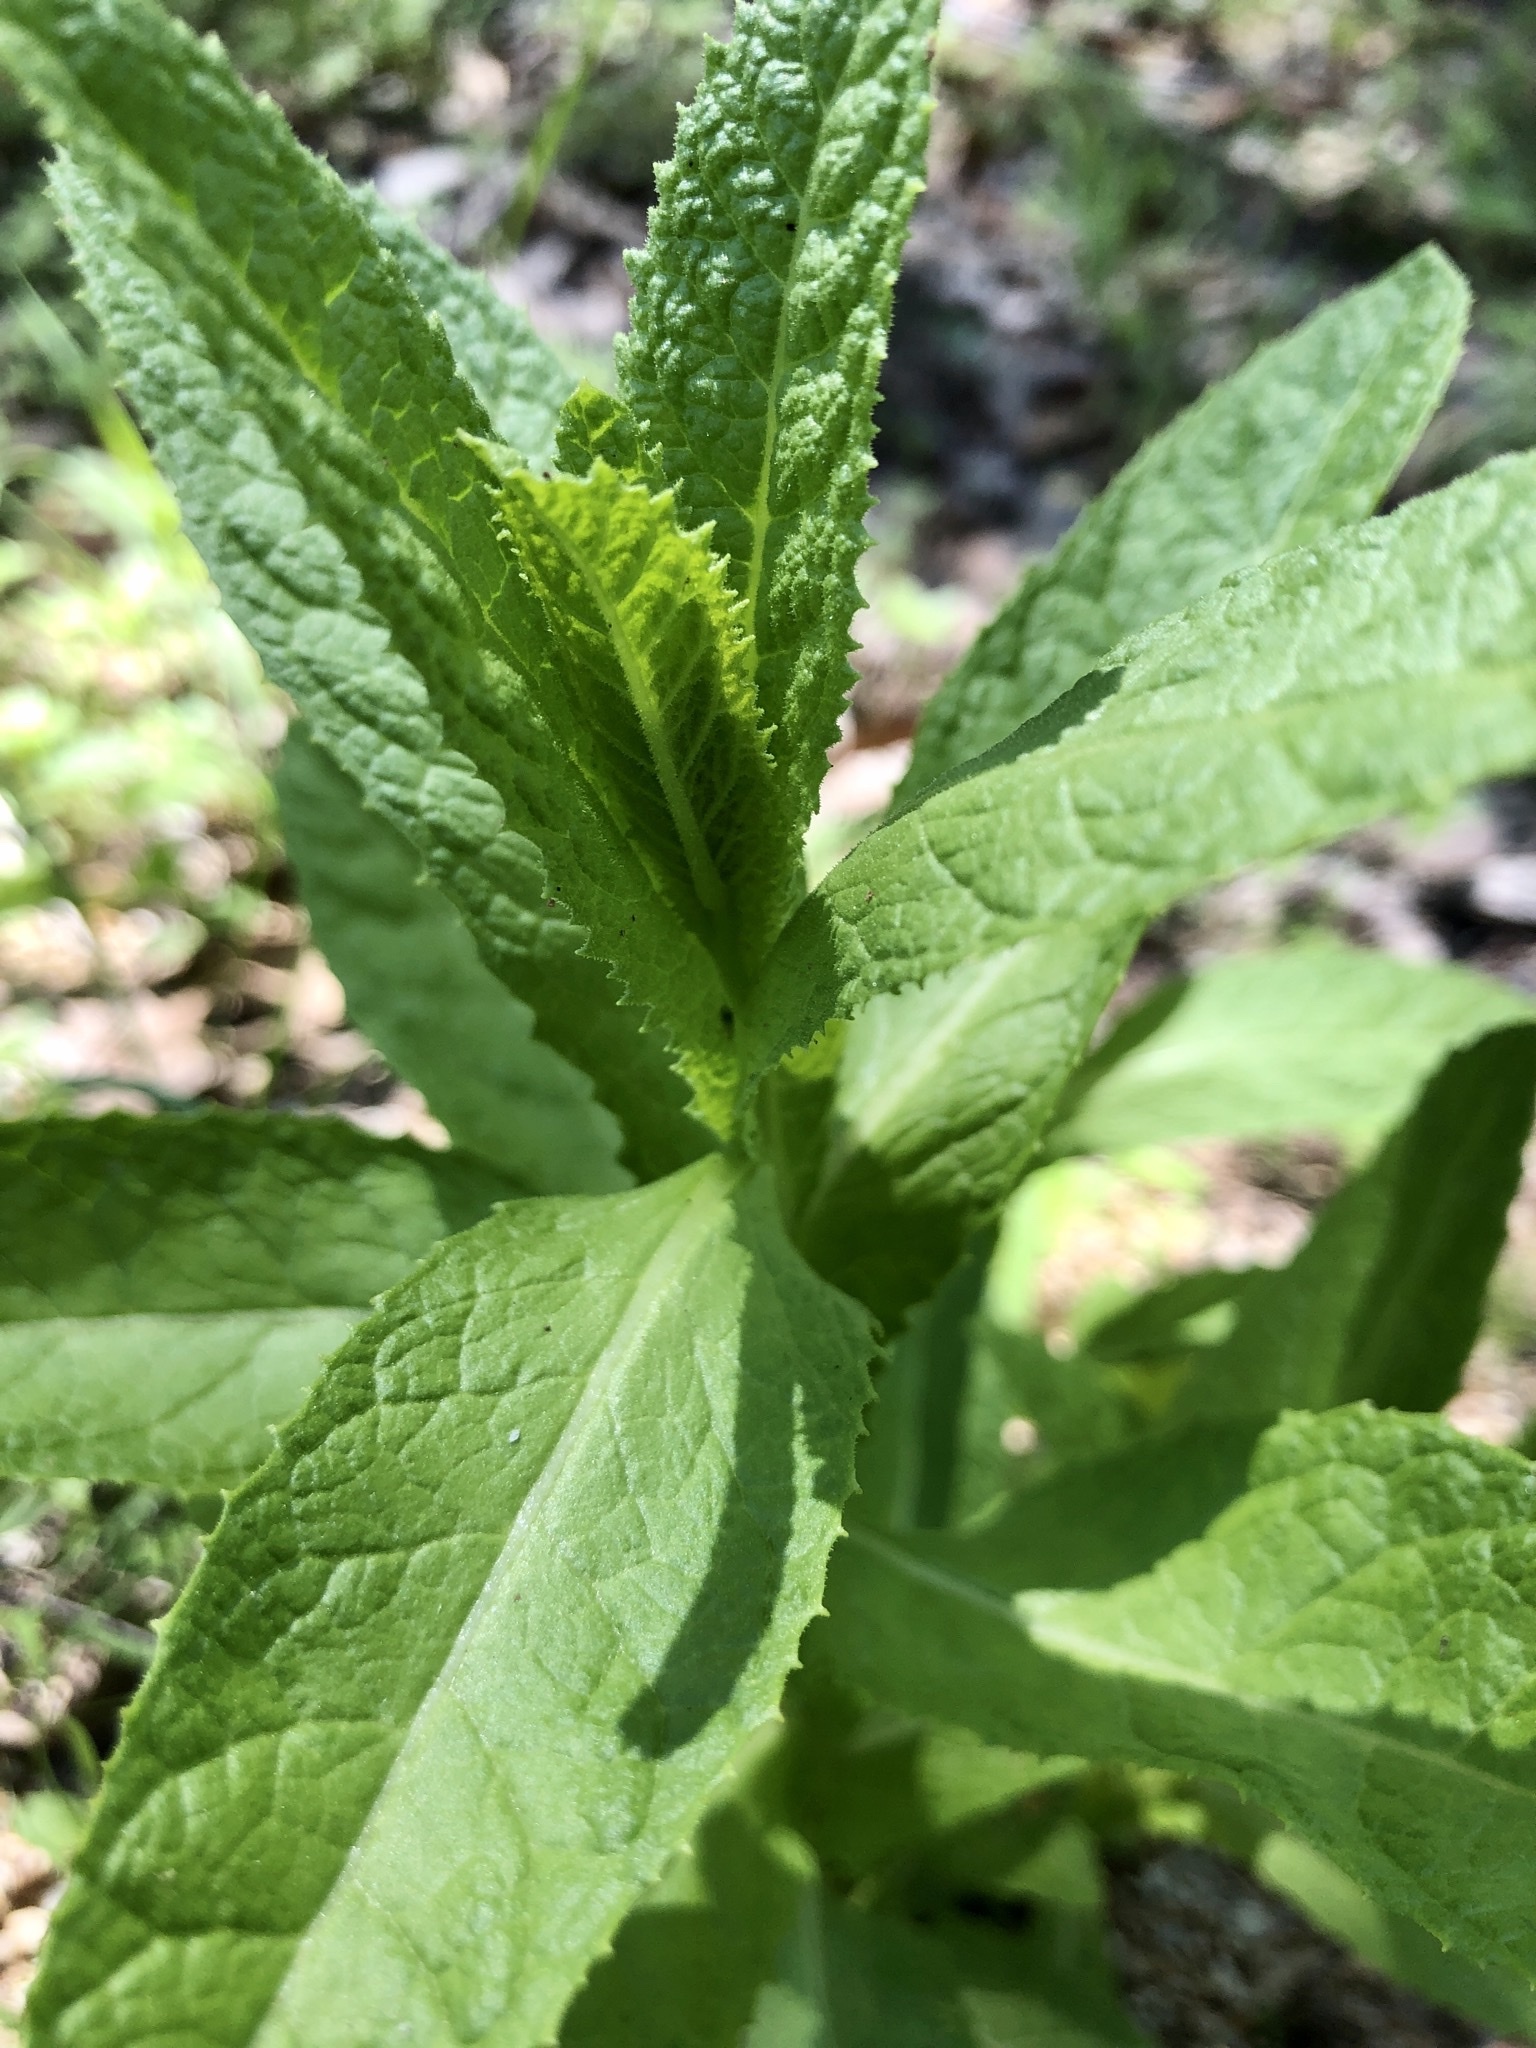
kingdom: Plantae
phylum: Tracheophyta
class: Magnoliopsida
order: Asterales
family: Asteraceae
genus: Pterocaulon
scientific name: Pterocaulon serrulatum
